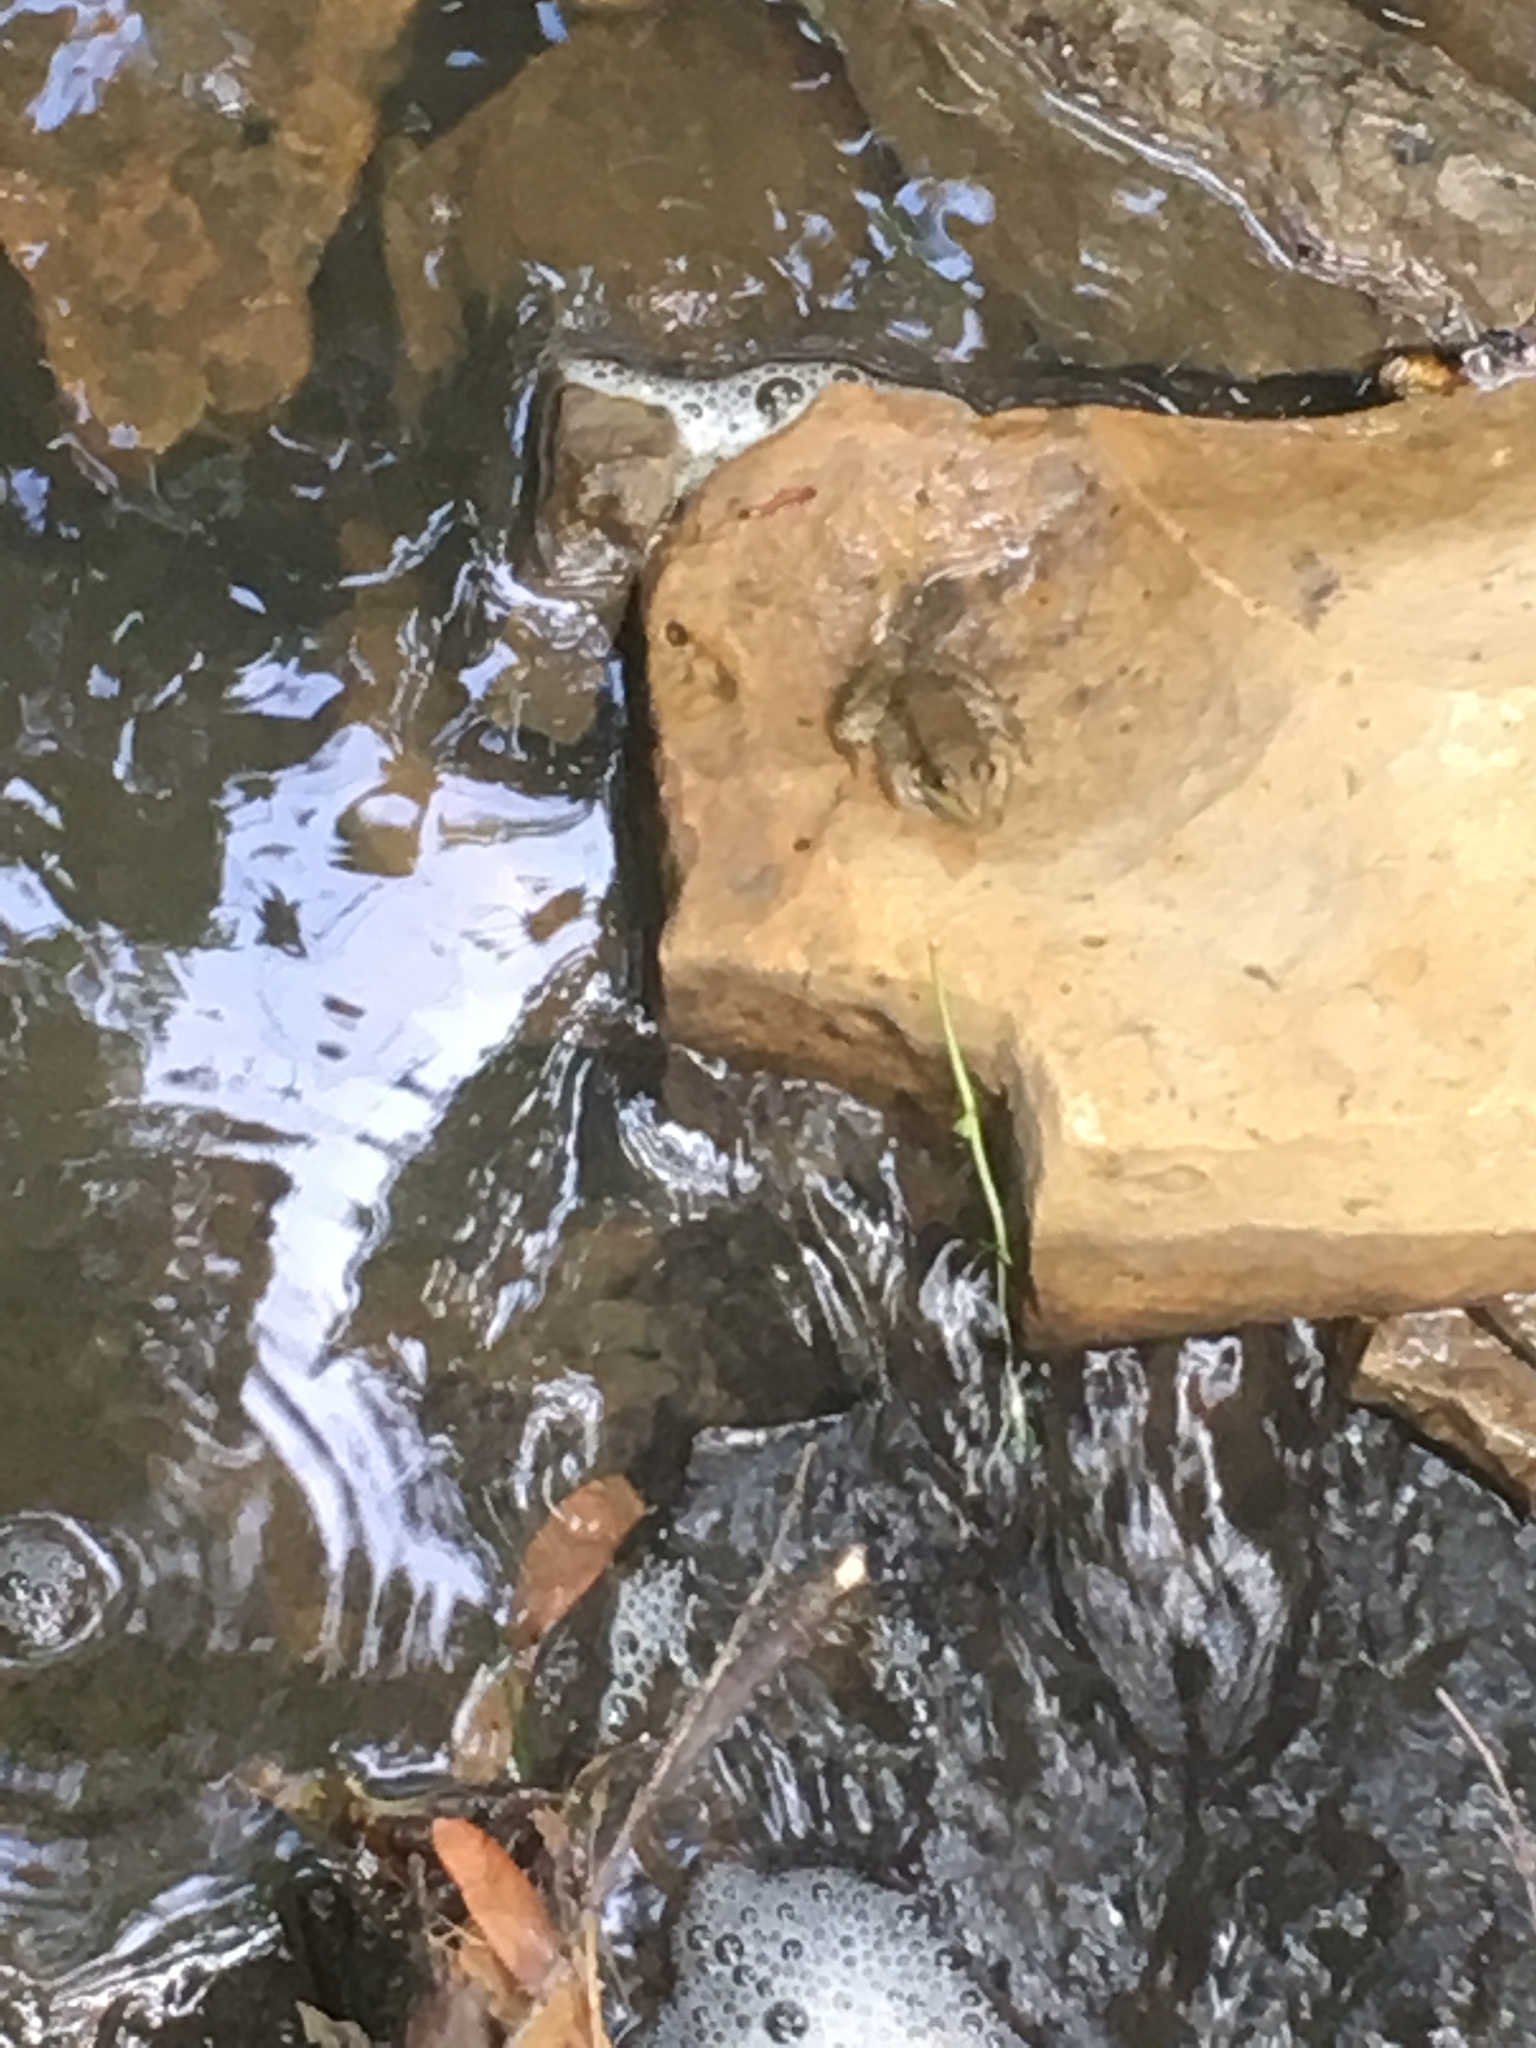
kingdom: Animalia
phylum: Chordata
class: Amphibia
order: Anura
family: Ranidae
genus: Lithobates
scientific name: Lithobates clamitans
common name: Green frog
